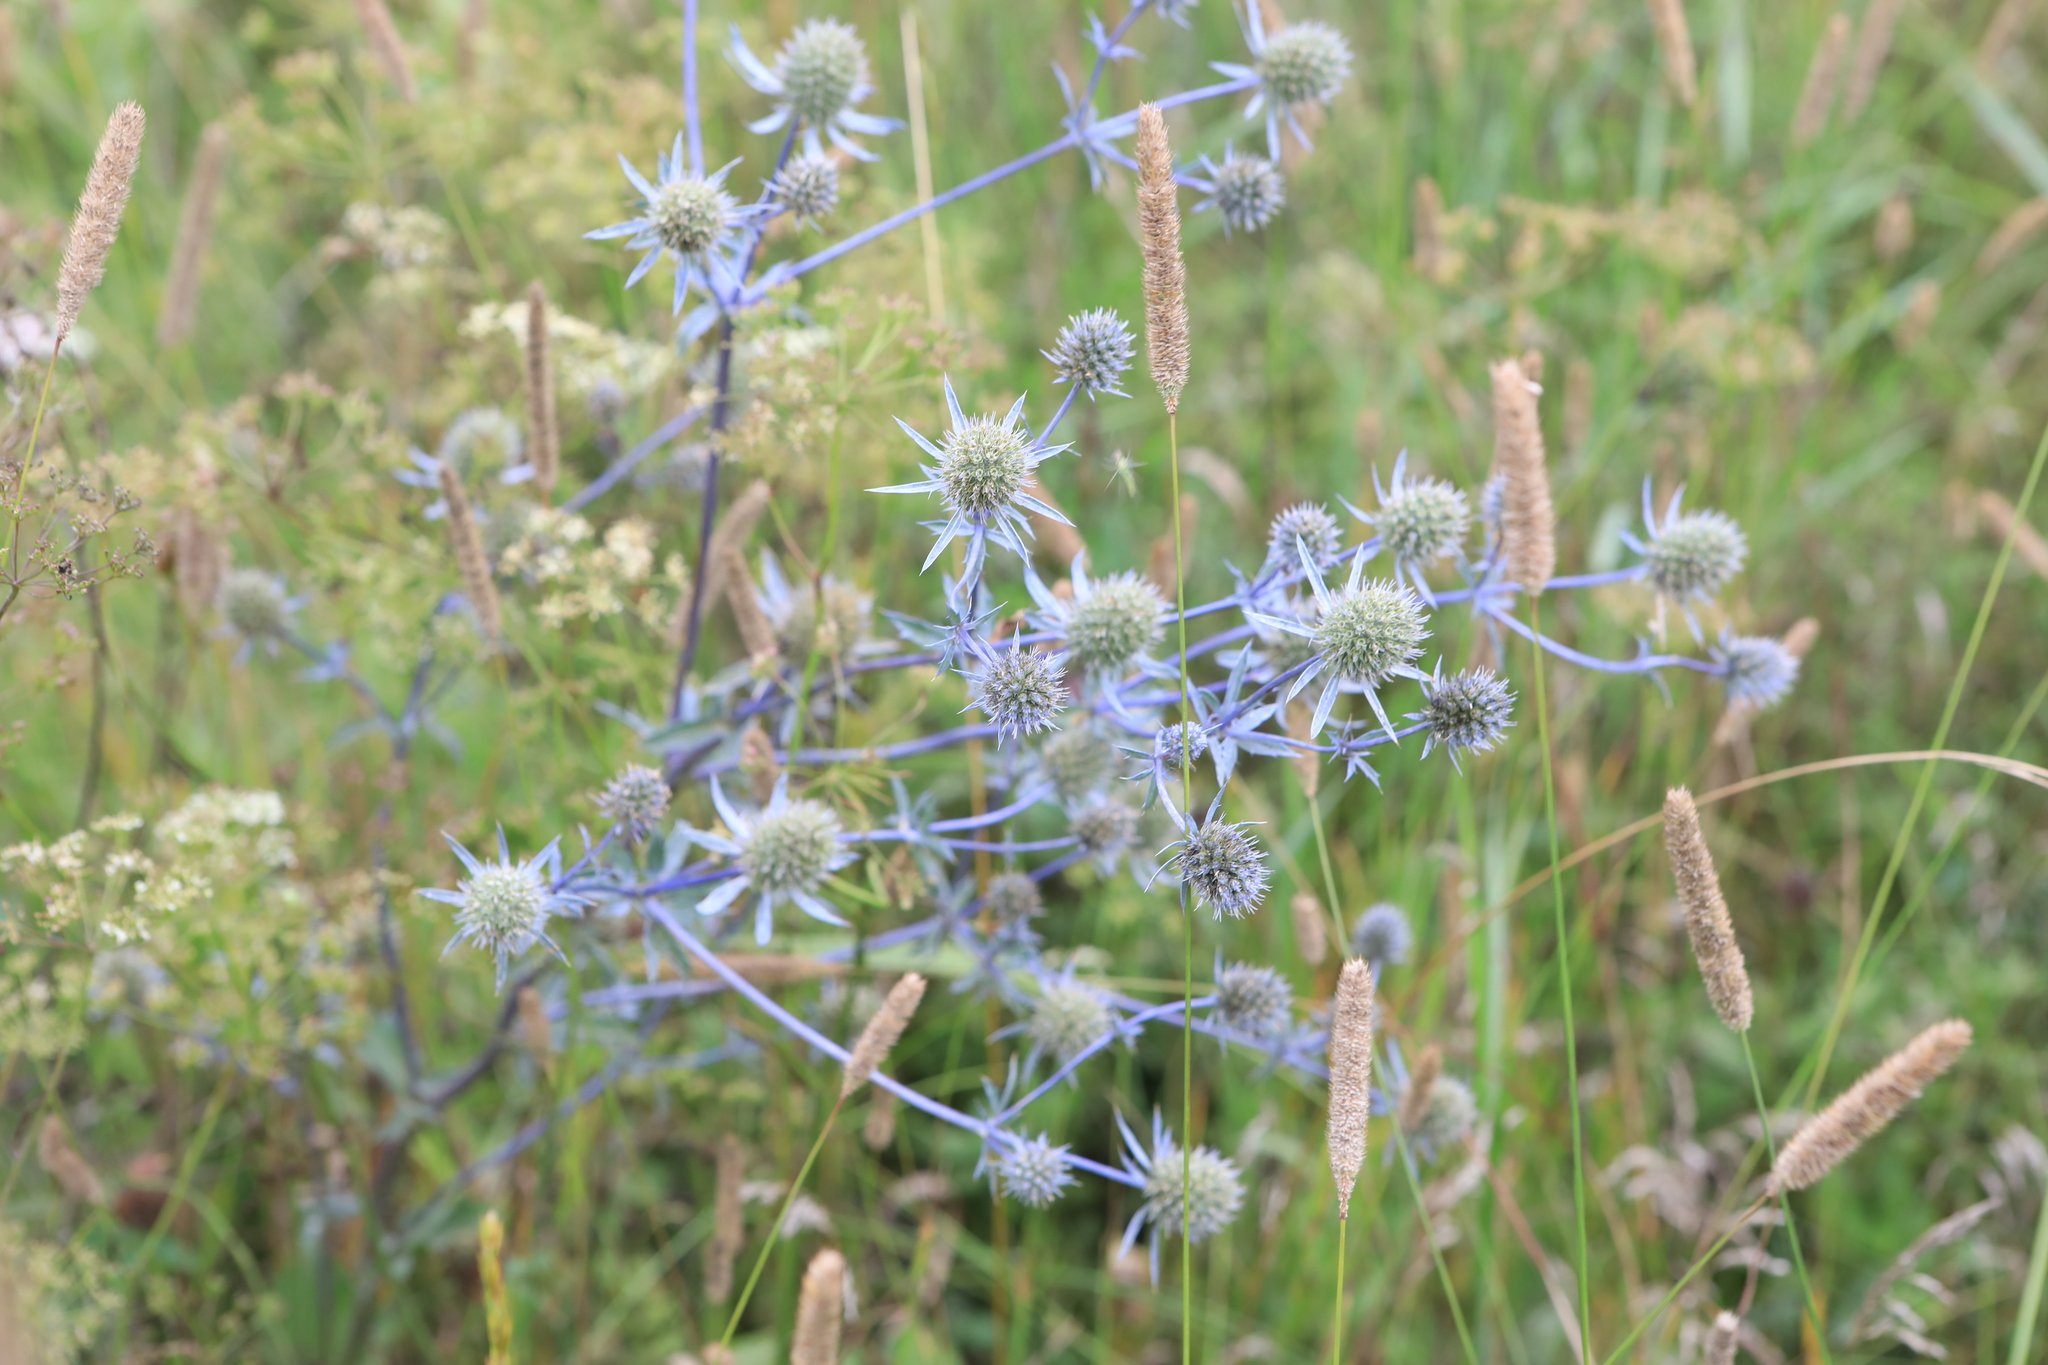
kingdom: Plantae
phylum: Tracheophyta
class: Magnoliopsida
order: Apiales
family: Apiaceae
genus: Eryngium
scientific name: Eryngium planum
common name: Blue eryngo
